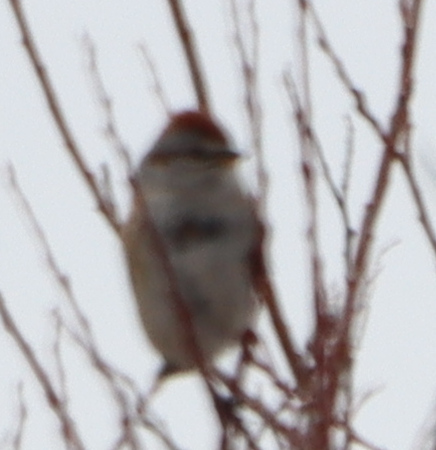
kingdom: Animalia
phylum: Chordata
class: Aves
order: Passeriformes
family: Passerellidae
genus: Spizelloides
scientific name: Spizelloides arborea
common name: American tree sparrow
